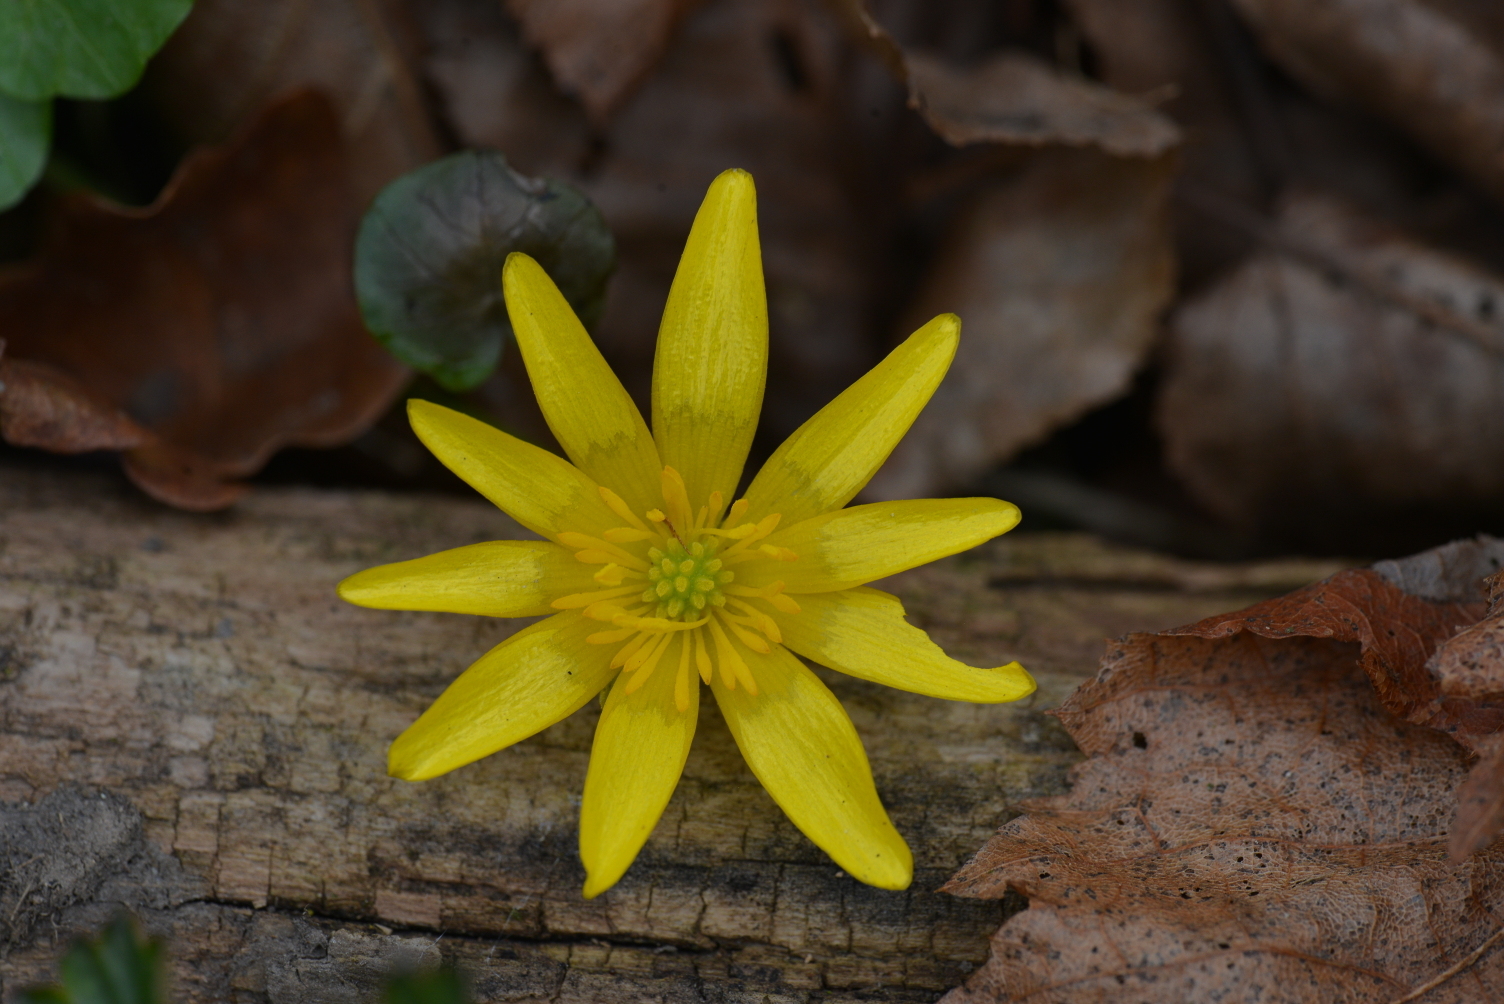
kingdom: Plantae
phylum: Tracheophyta
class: Magnoliopsida
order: Ranunculales
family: Ranunculaceae
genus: Ficaria
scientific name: Ficaria verna
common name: Lesser celandine
